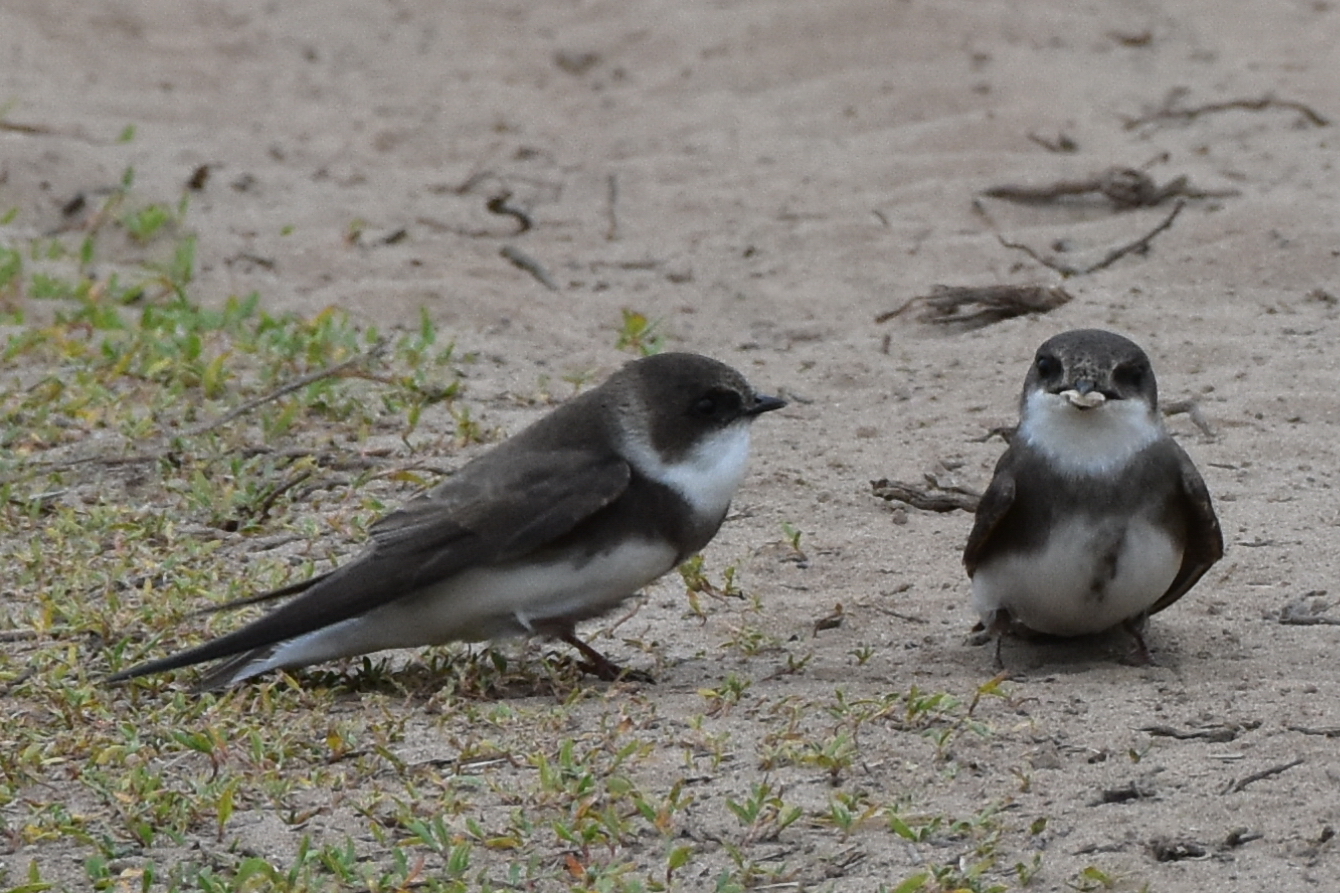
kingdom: Animalia
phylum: Chordata
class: Aves
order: Passeriformes
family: Hirundinidae
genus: Riparia
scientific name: Riparia riparia
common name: Sand martin
